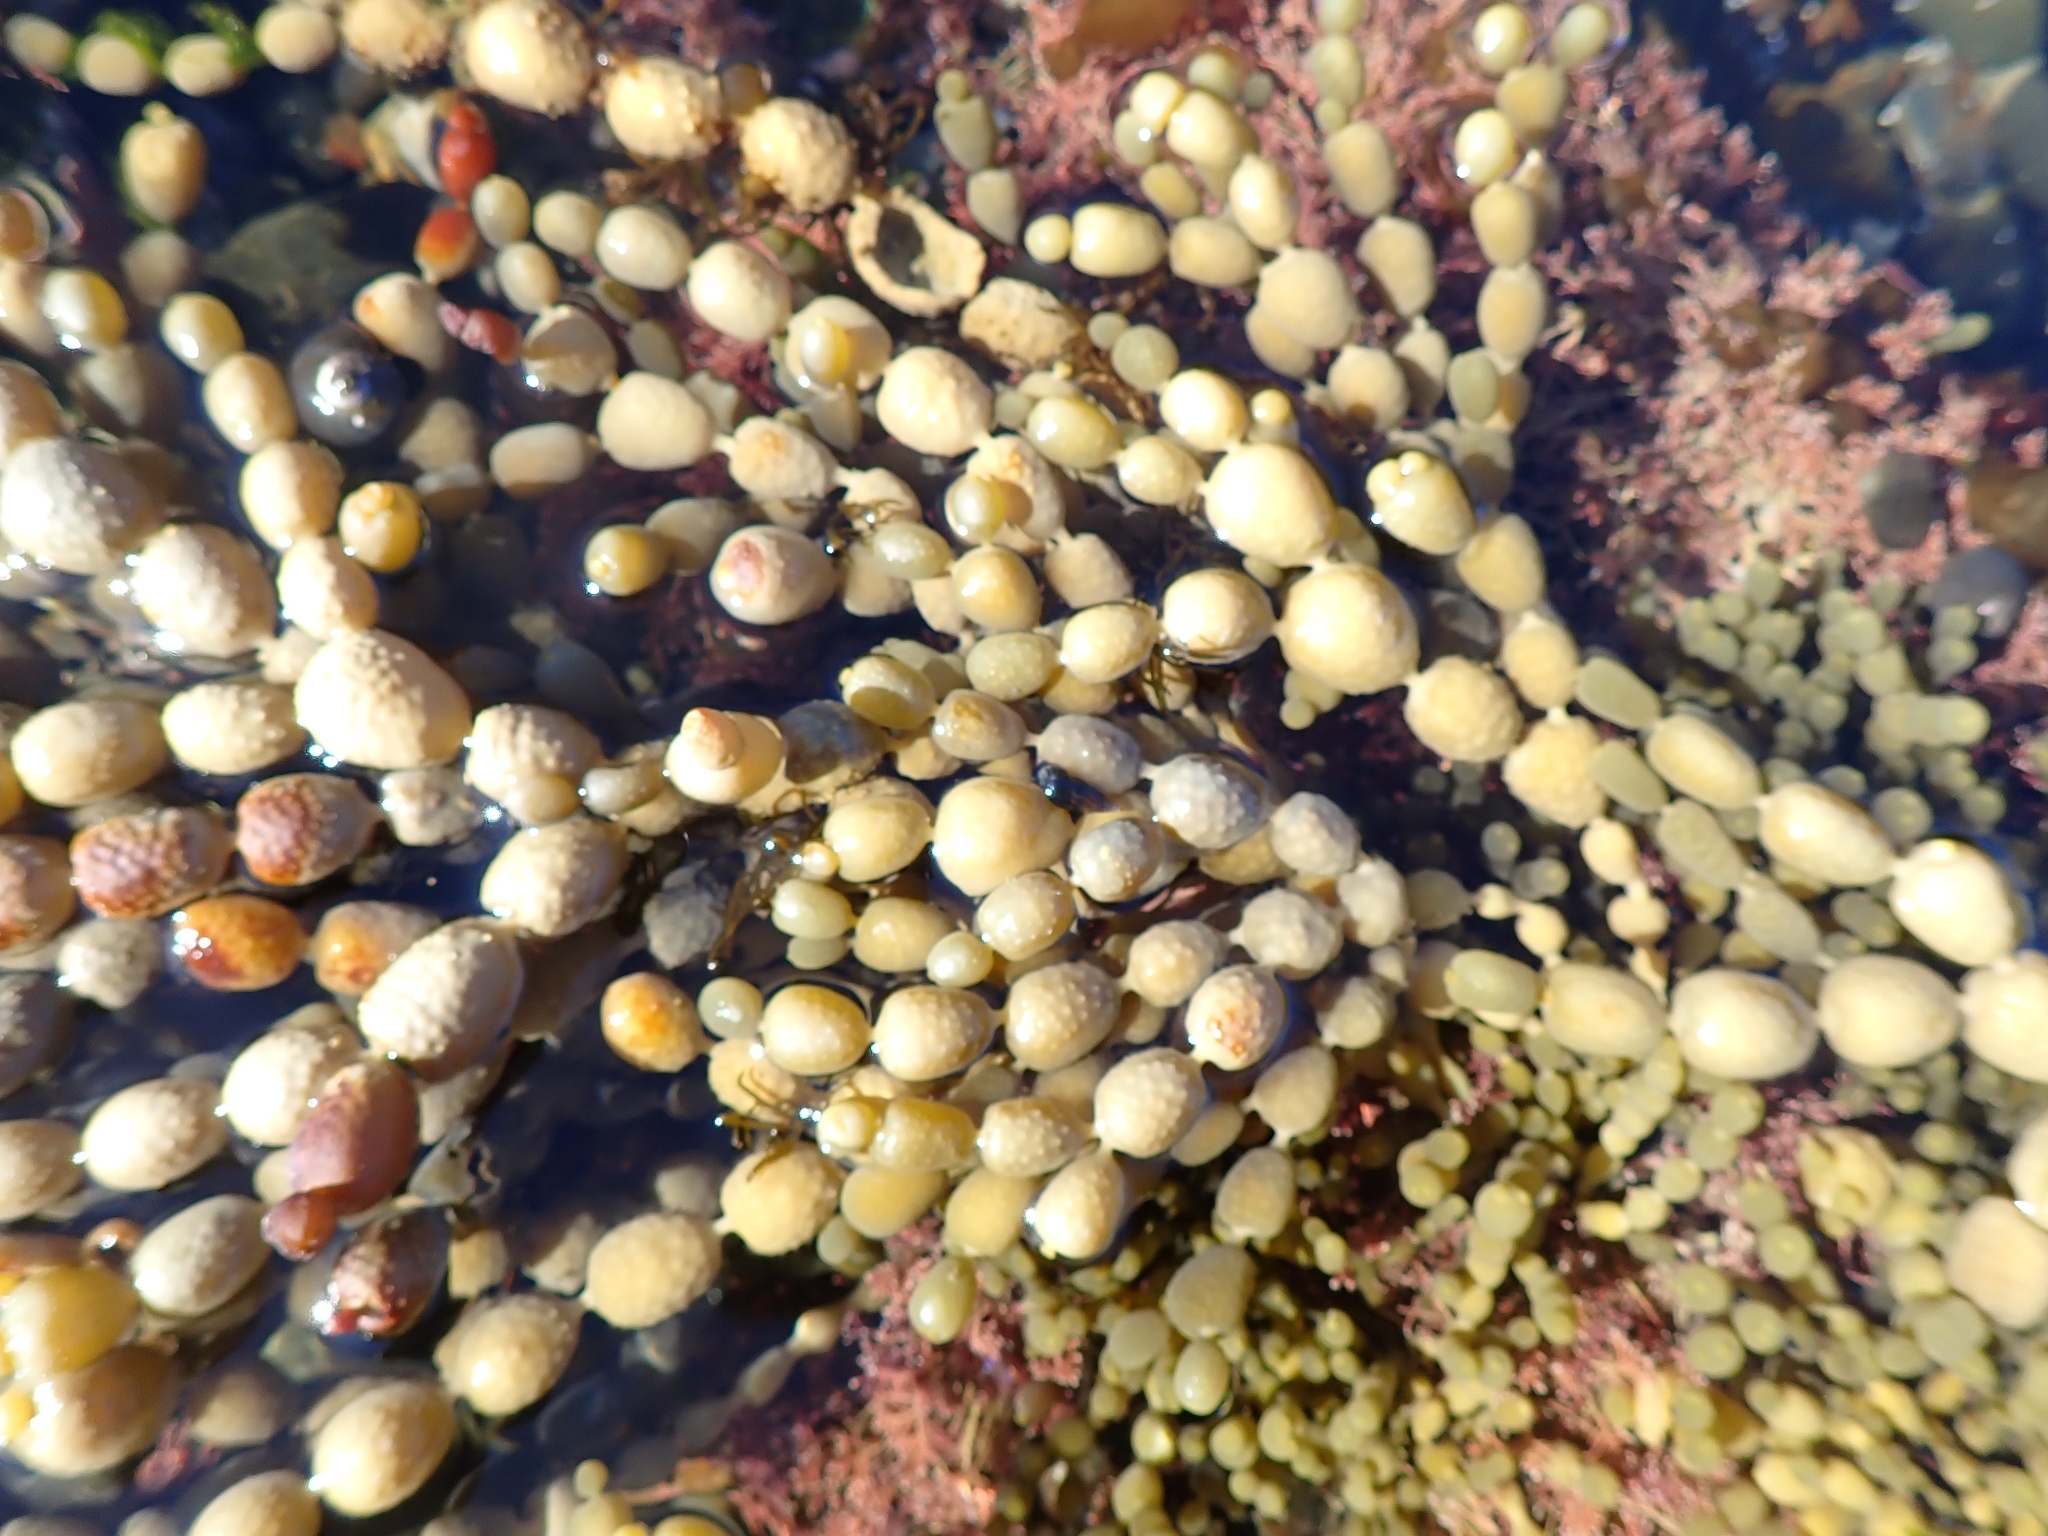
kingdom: Chromista
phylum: Ochrophyta
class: Phaeophyceae
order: Fucales
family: Hormosiraceae
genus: Hormosira
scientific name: Hormosira banksii
